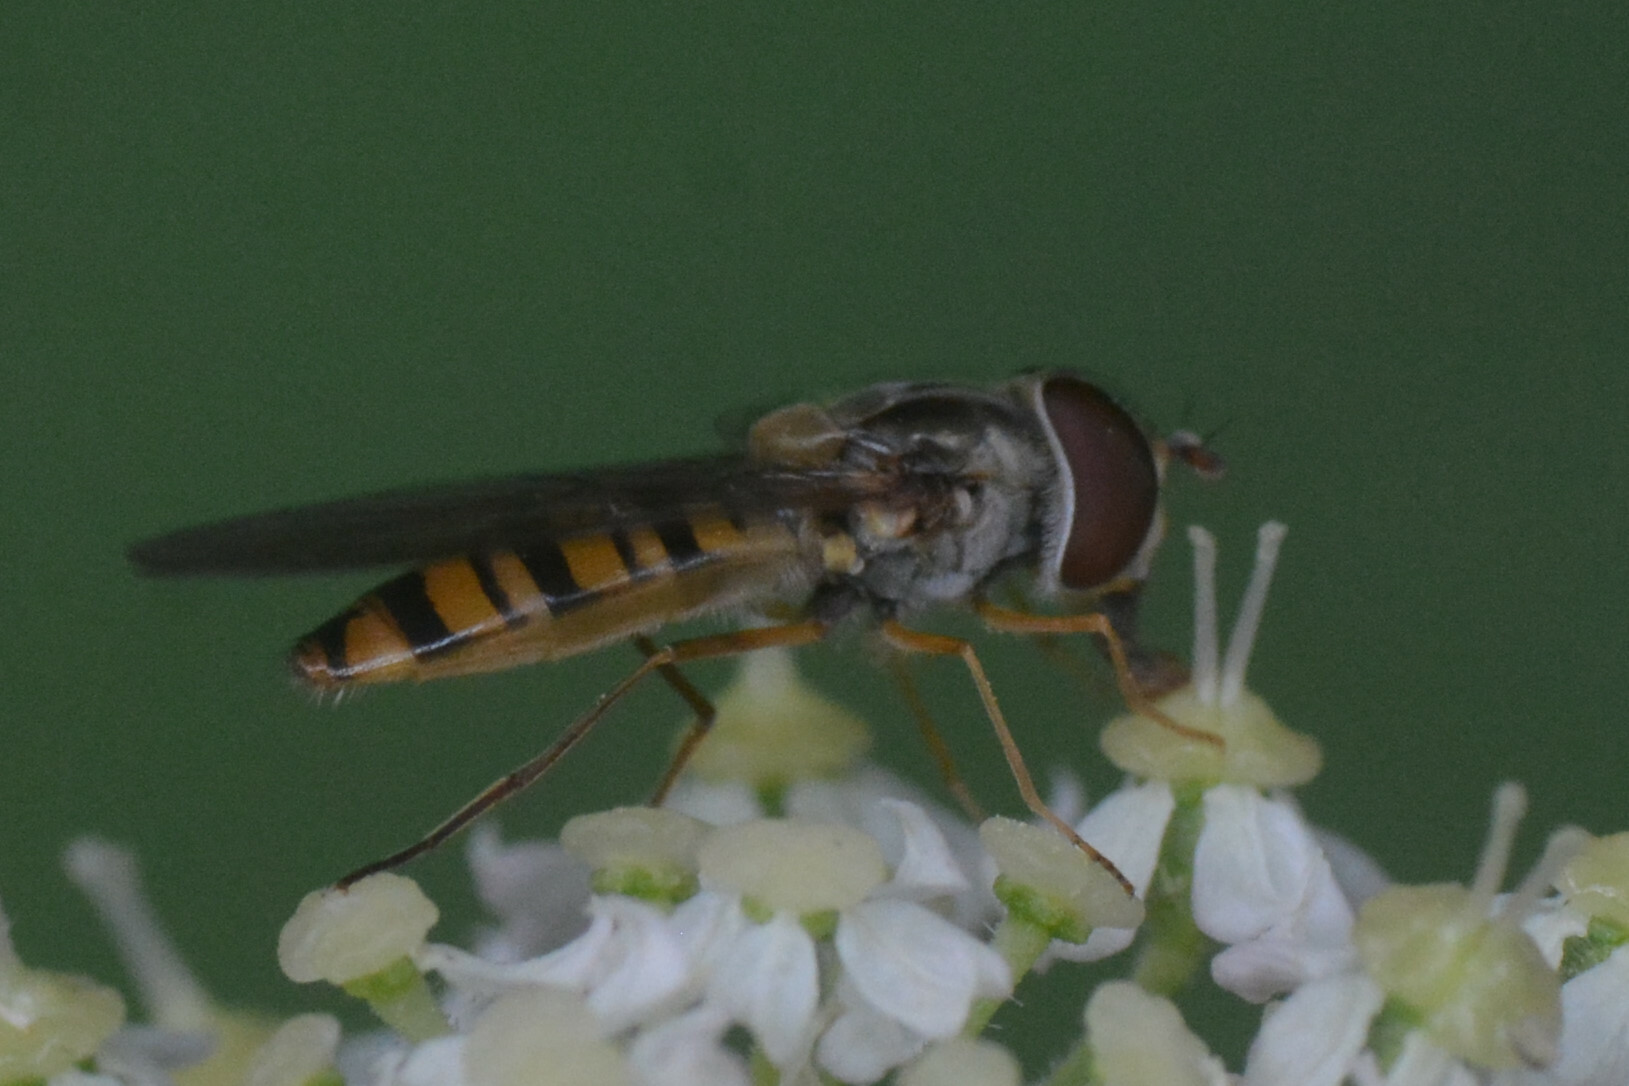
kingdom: Animalia
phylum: Arthropoda
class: Insecta
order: Diptera
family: Syrphidae
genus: Episyrphus
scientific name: Episyrphus balteatus
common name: Marmalade hoverfly
